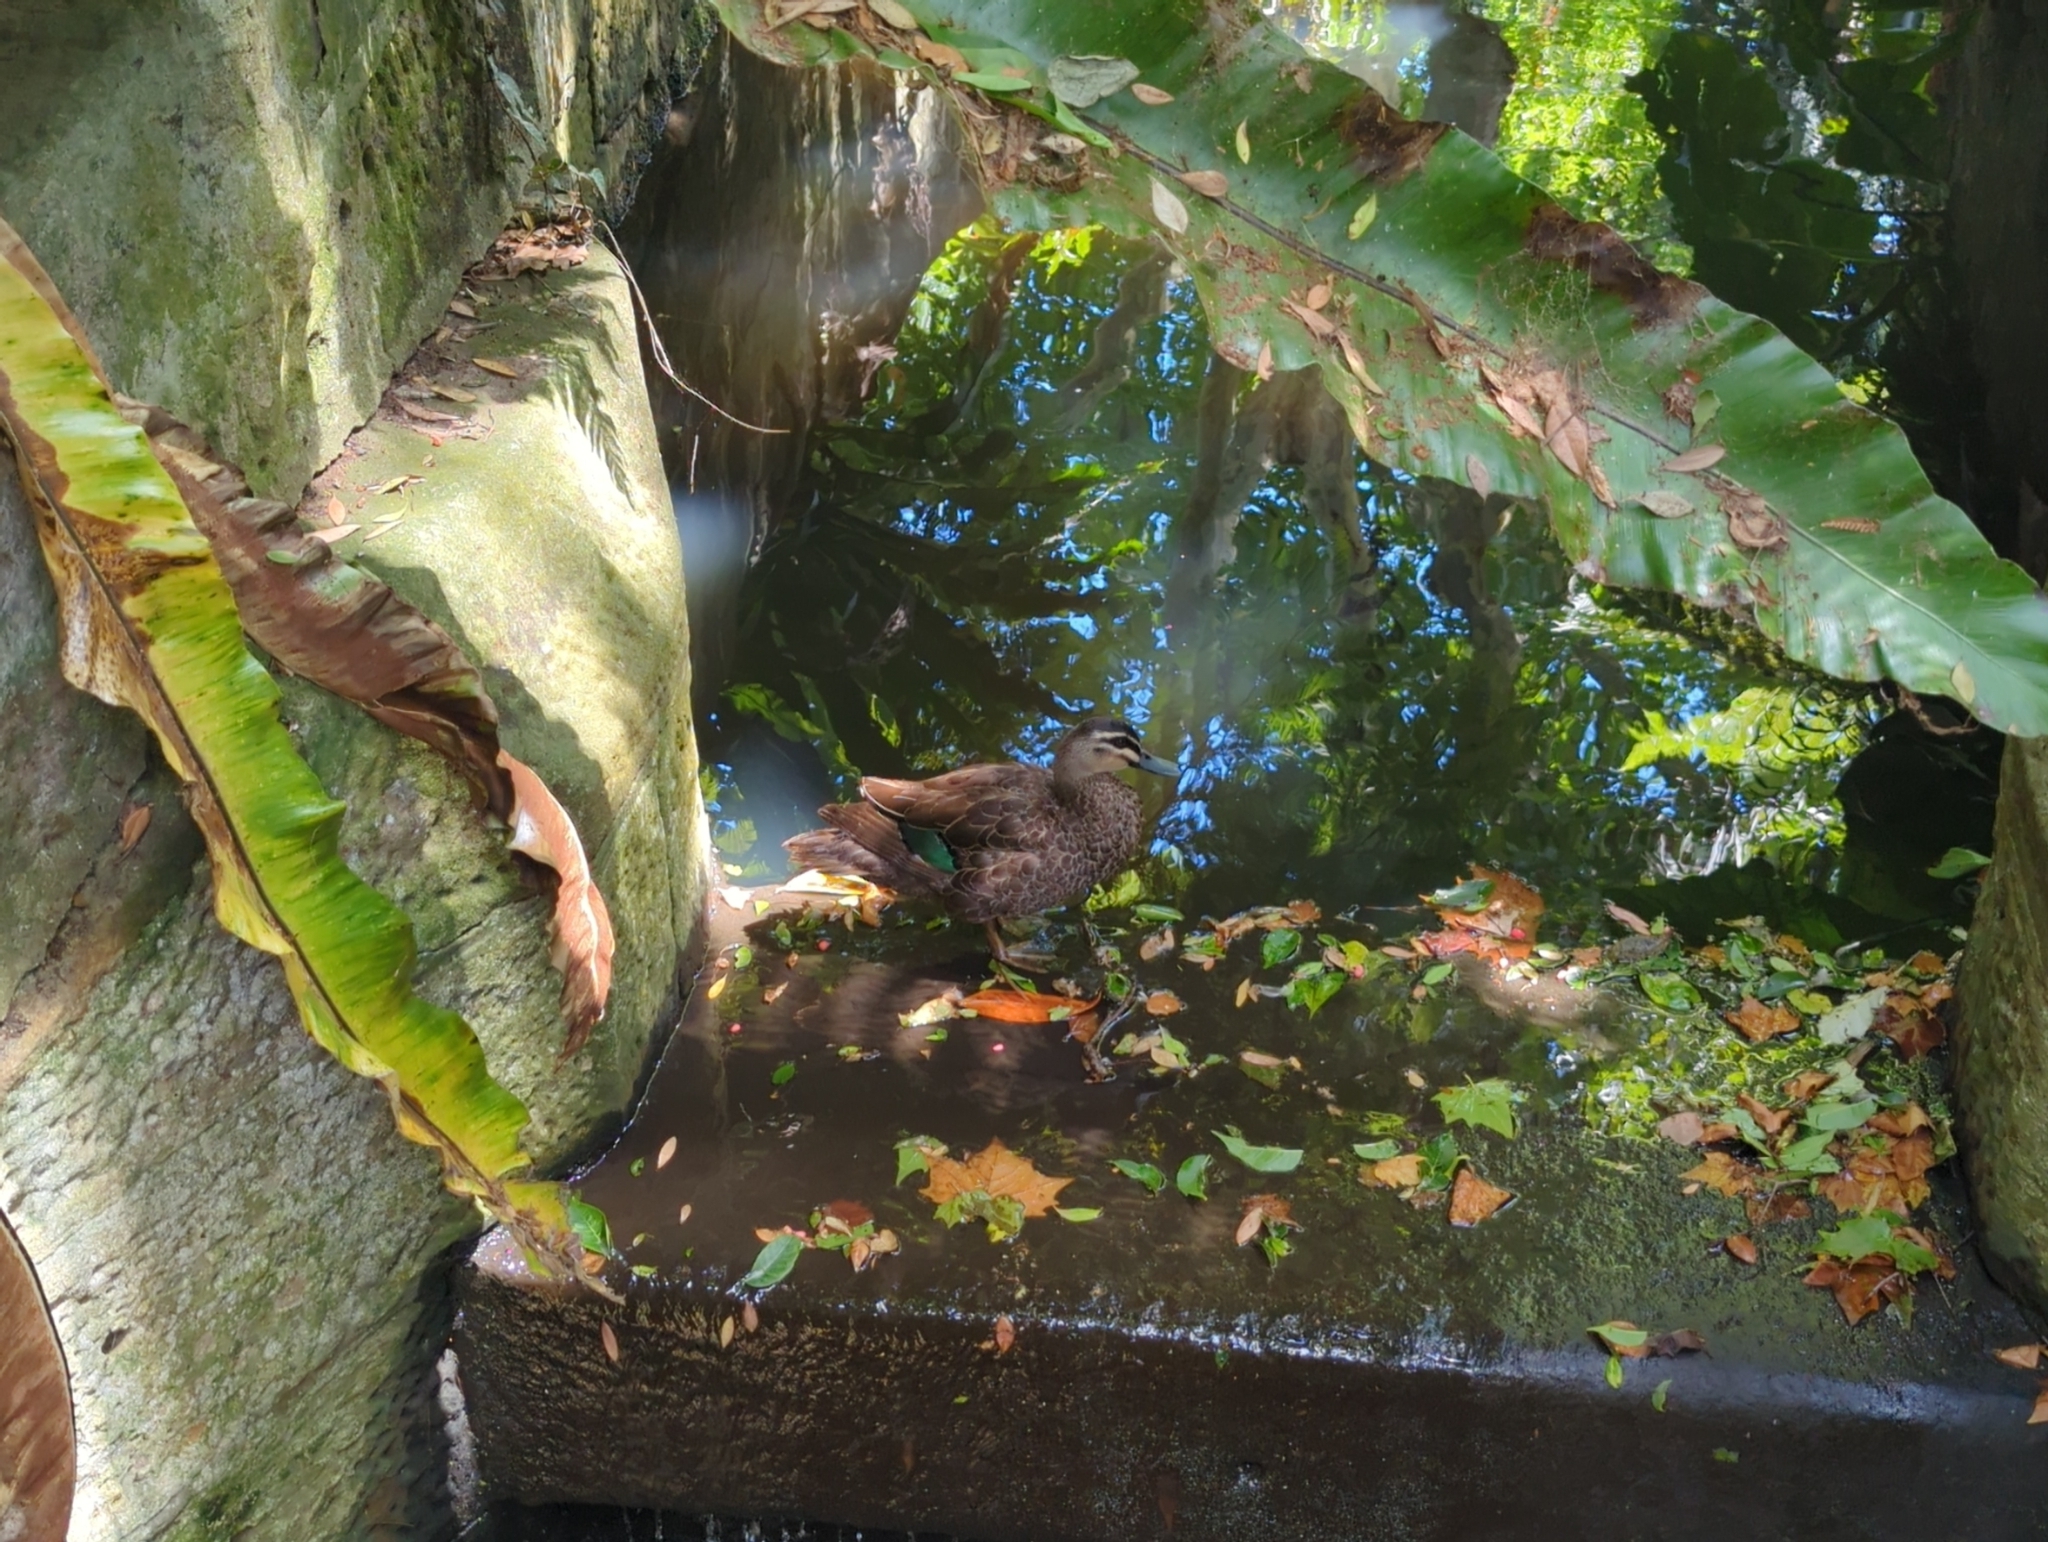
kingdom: Animalia
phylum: Chordata
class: Aves
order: Anseriformes
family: Anatidae
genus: Anas
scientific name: Anas superciliosa
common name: Pacific black duck
